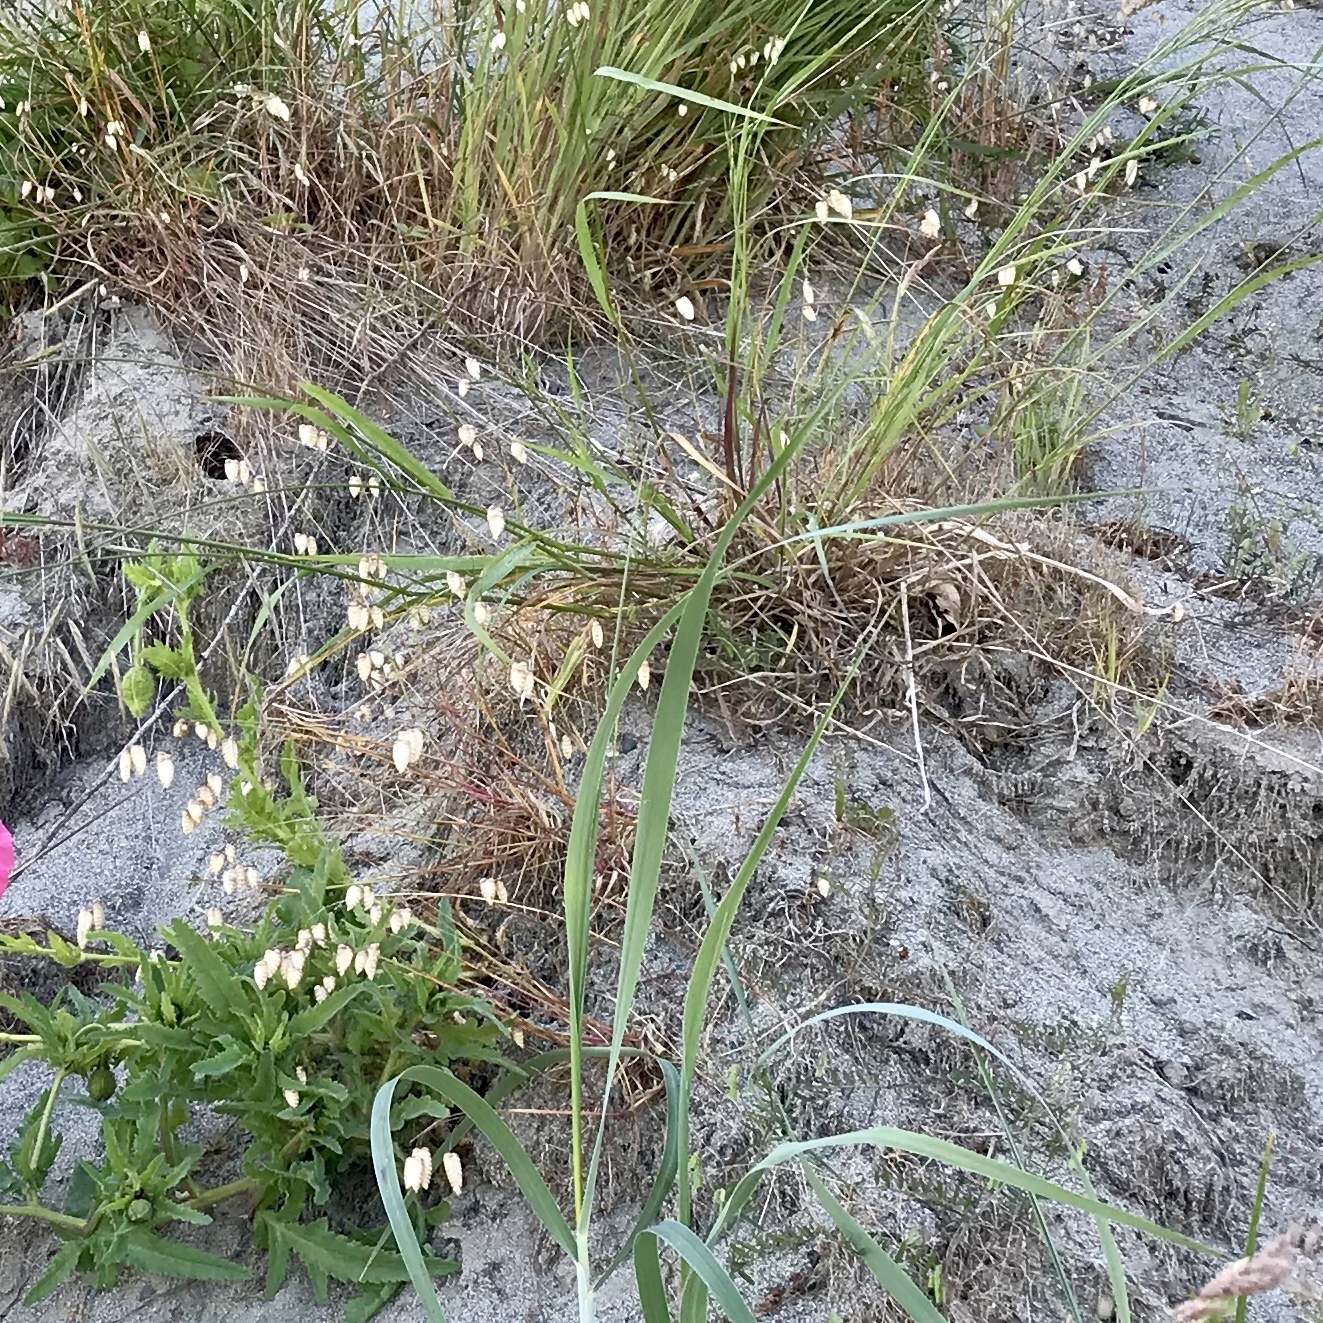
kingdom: Plantae
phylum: Tracheophyta
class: Liliopsida
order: Poales
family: Poaceae
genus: Briza
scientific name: Briza maxima
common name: Big quakinggrass
